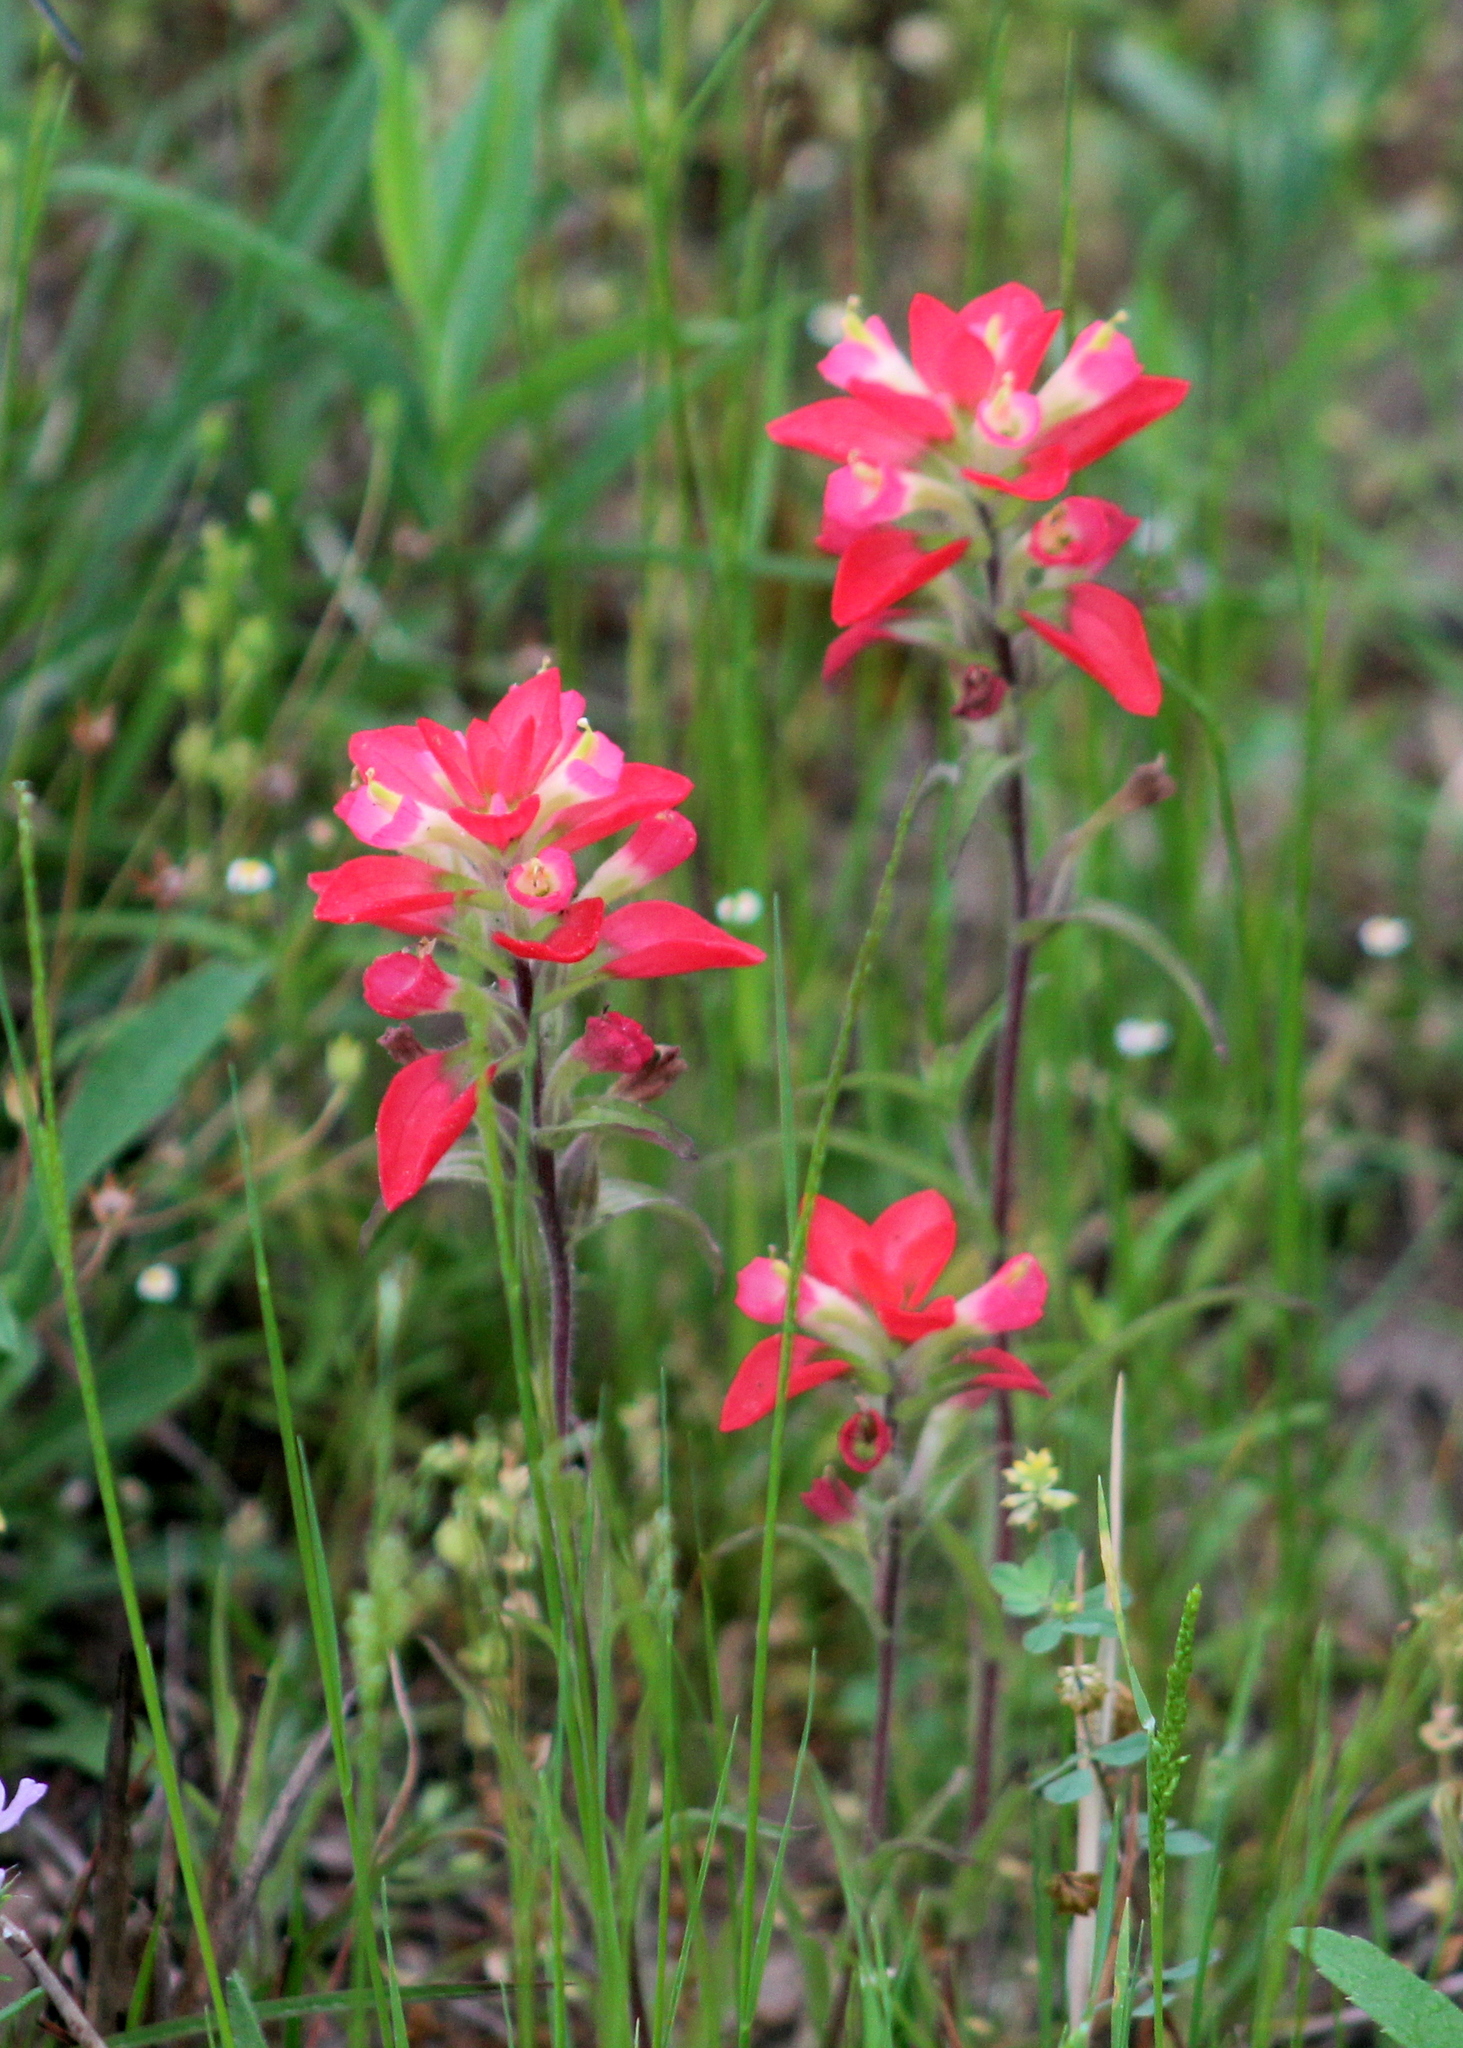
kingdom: Plantae
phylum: Tracheophyta
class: Magnoliopsida
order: Lamiales
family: Orobanchaceae
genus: Castilleja
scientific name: Castilleja indivisa
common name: Texas paintbrush
